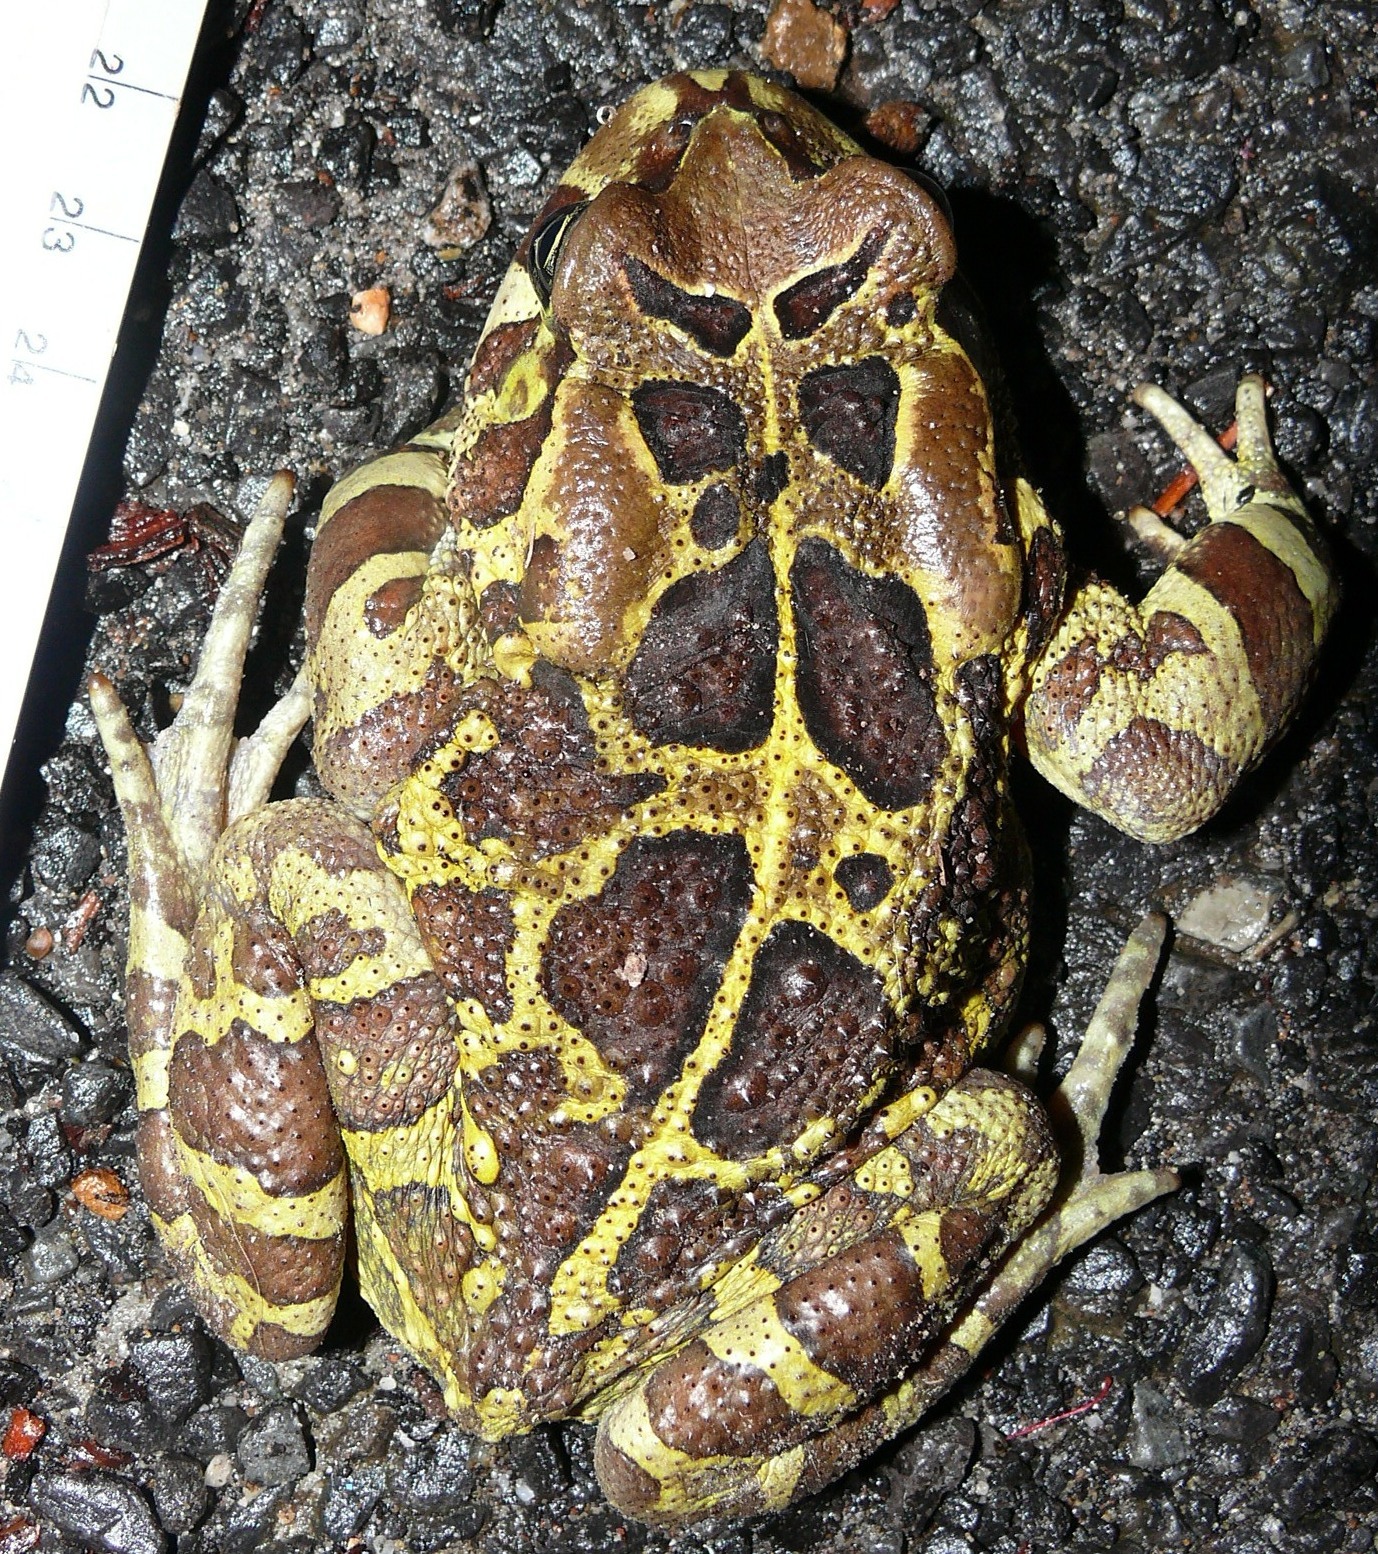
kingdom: Animalia
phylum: Chordata
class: Amphibia
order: Anura
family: Bufonidae
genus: Sclerophrys
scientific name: Sclerophrys pantherina
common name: Panther toad
